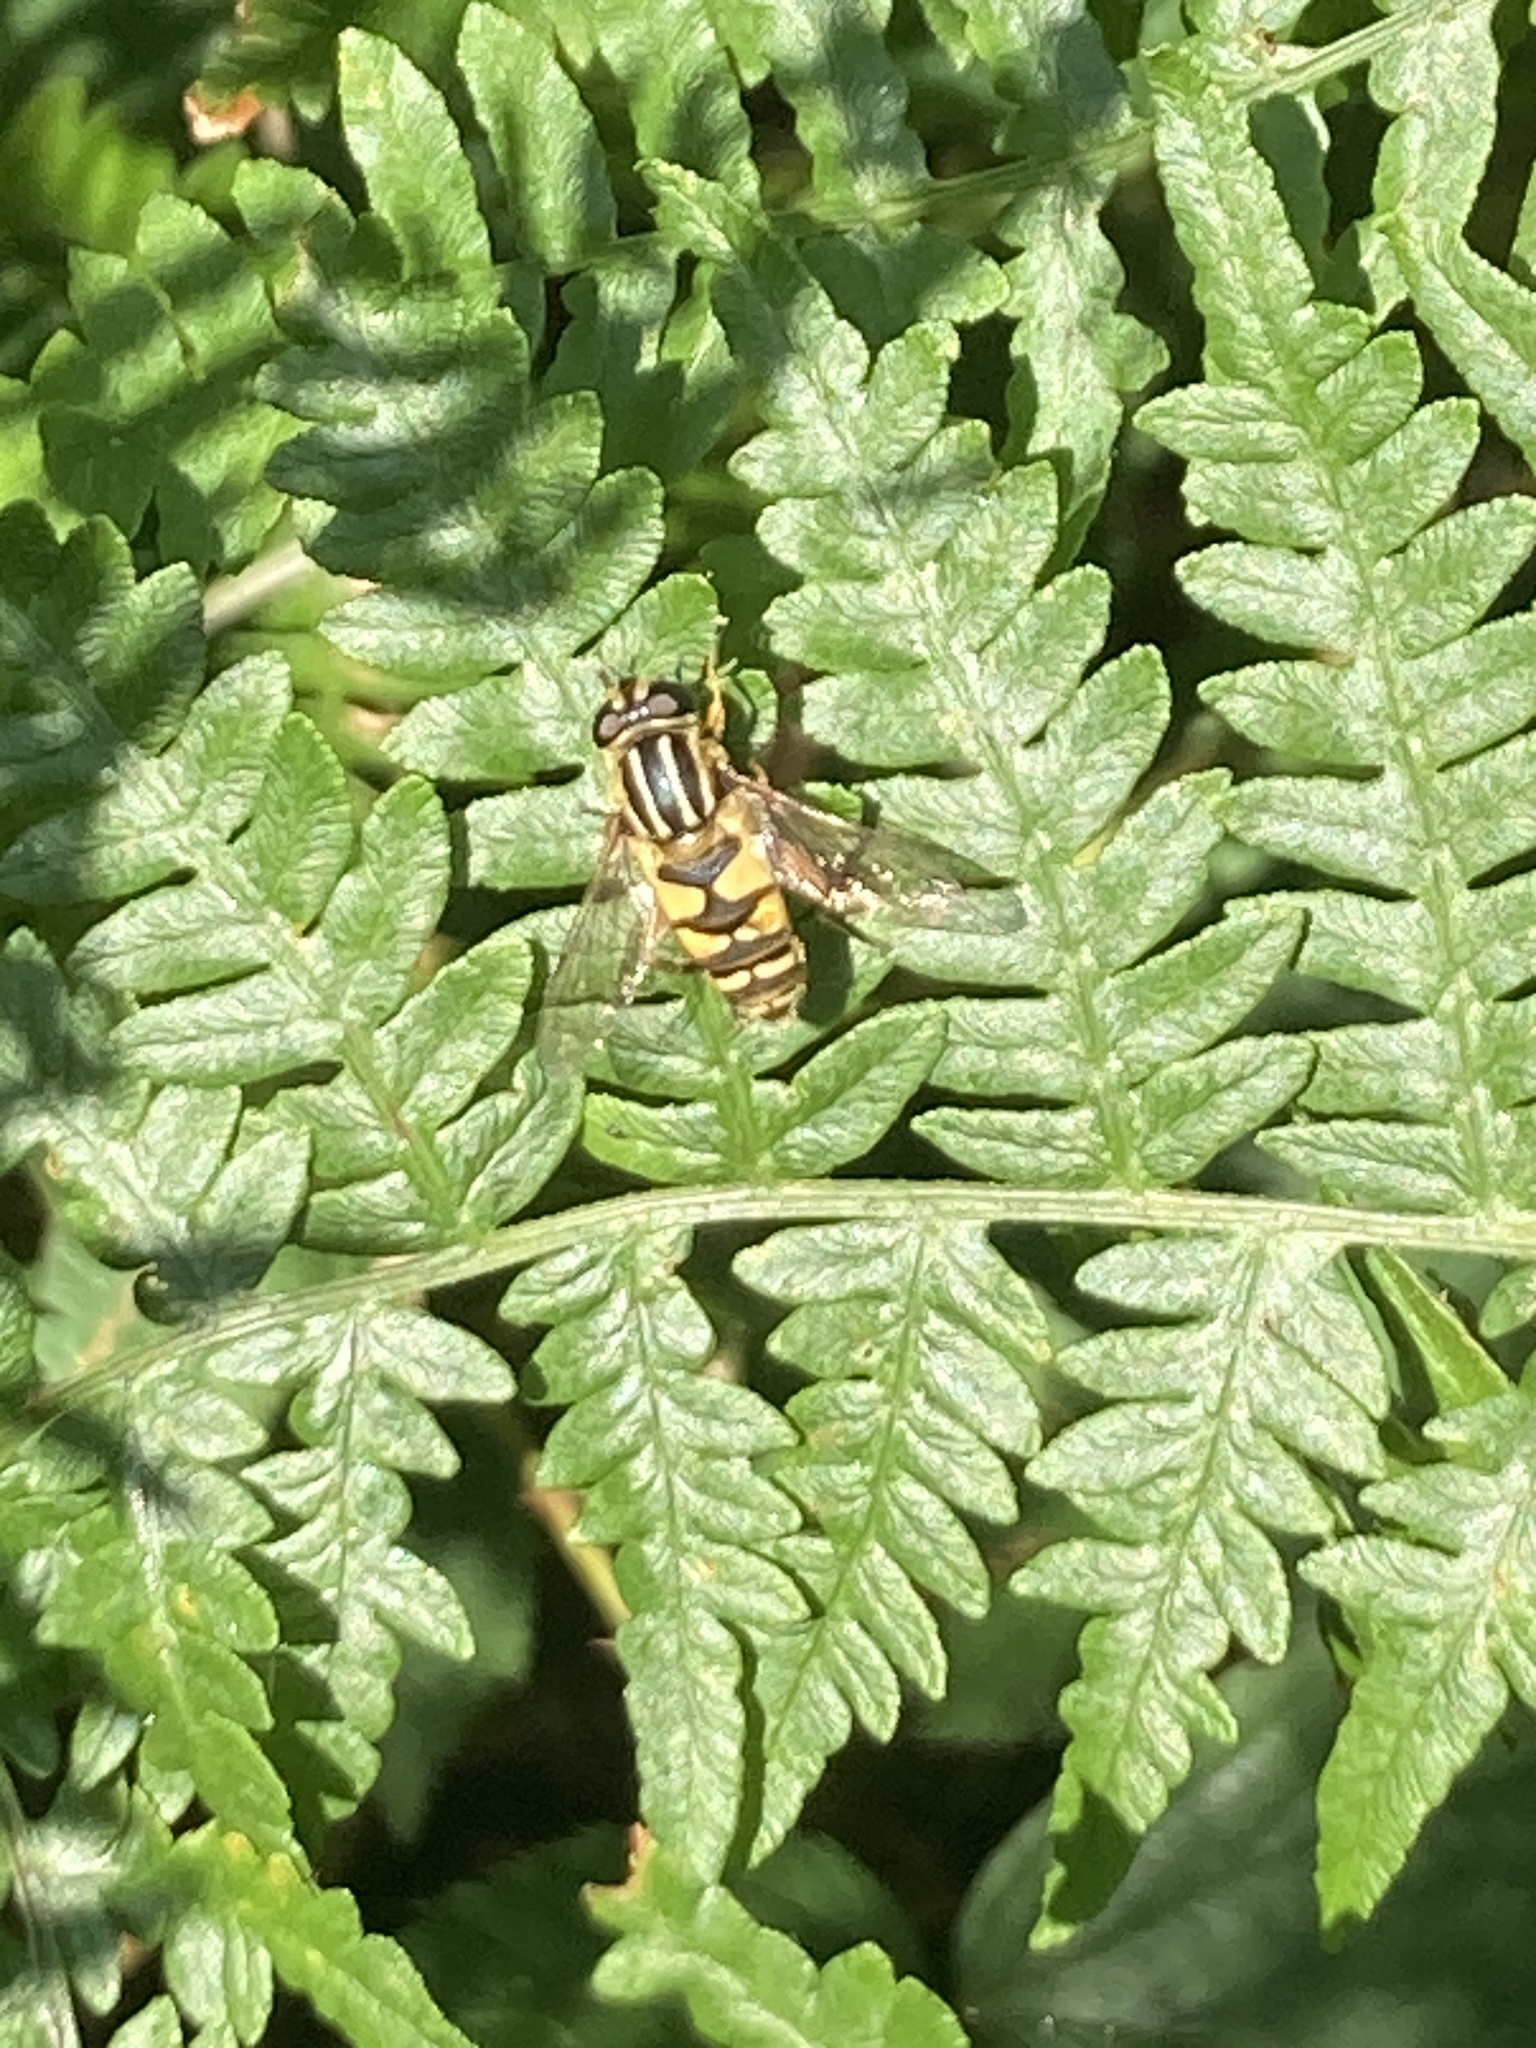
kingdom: Animalia
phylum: Arthropoda
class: Insecta
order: Diptera
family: Syrphidae
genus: Helophilus
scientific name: Helophilus pendulus
